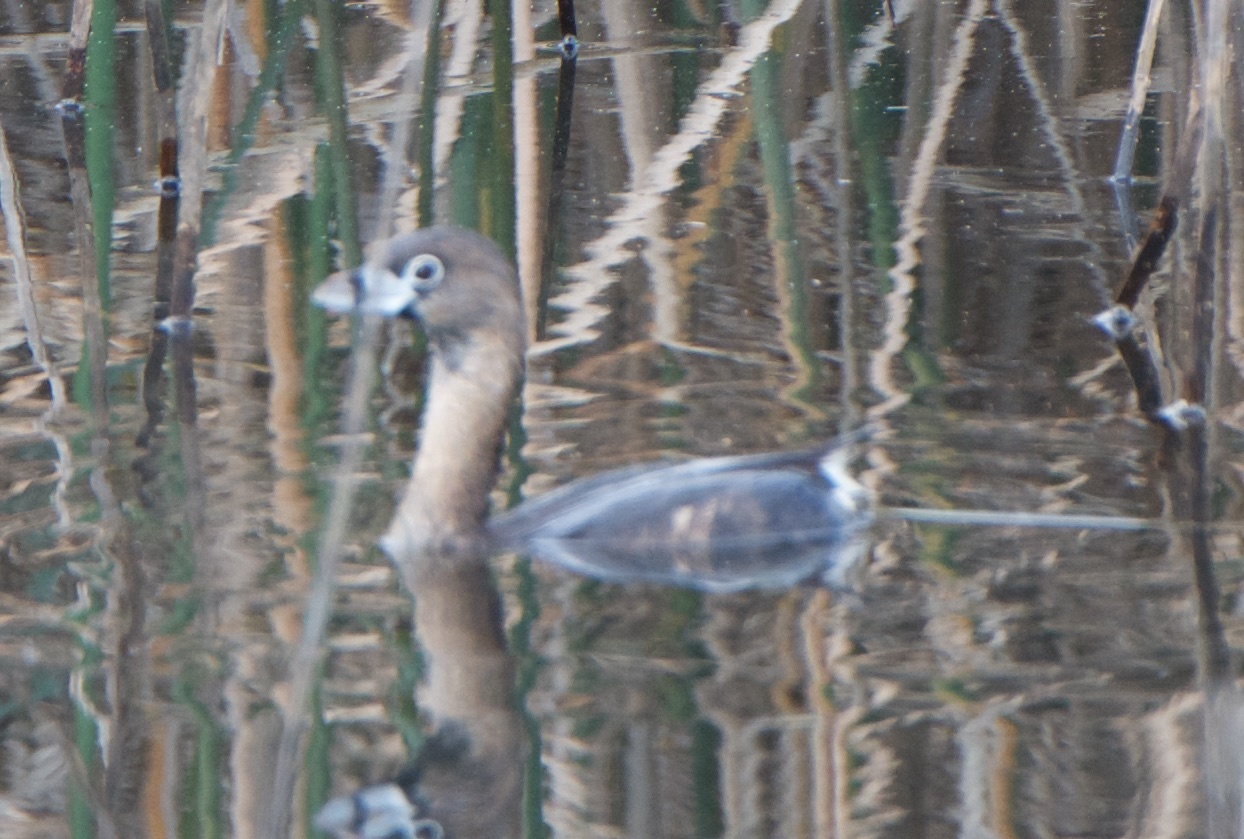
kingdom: Animalia
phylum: Chordata
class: Aves
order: Podicipediformes
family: Podicipedidae
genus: Podilymbus
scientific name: Podilymbus podiceps
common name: Pied-billed grebe
